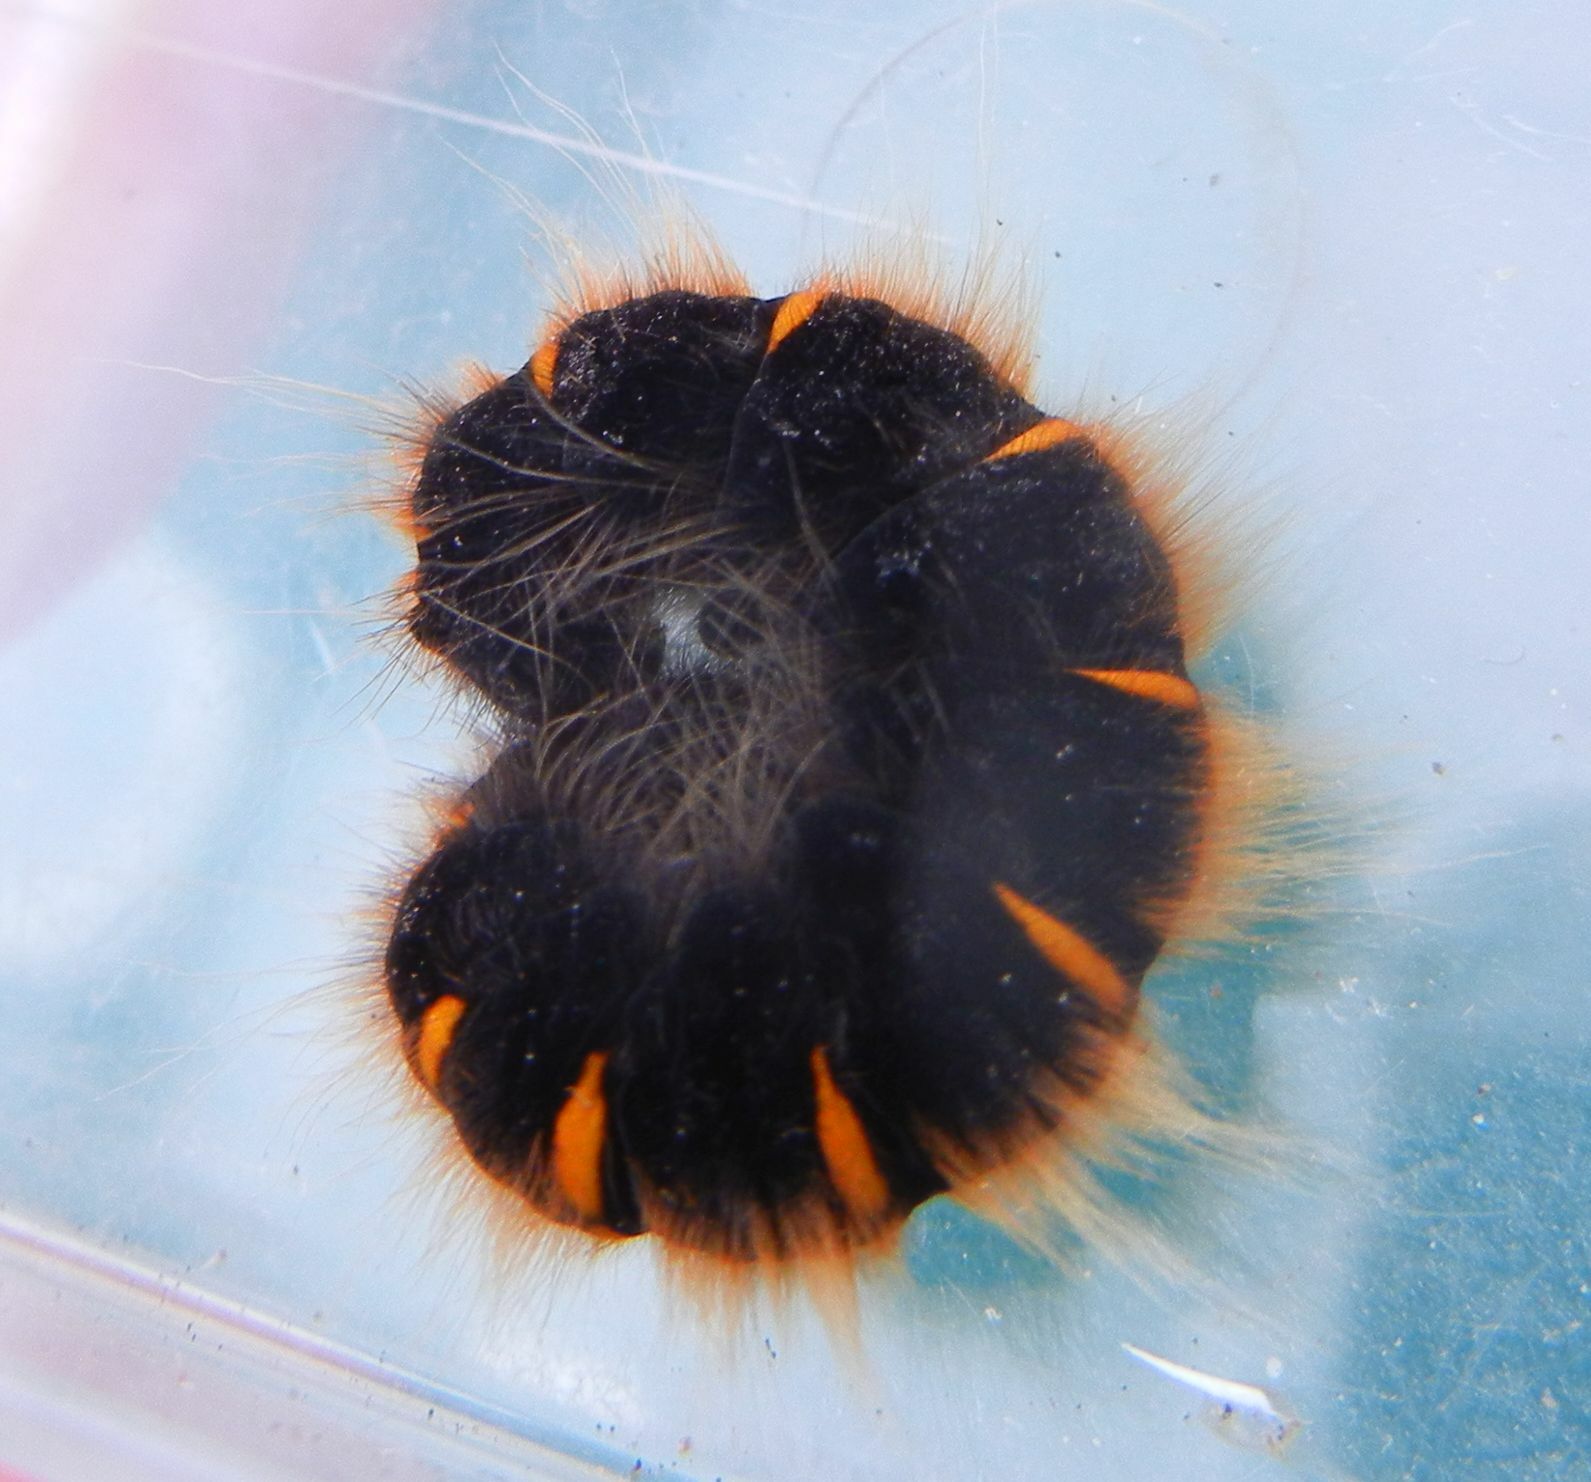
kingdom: Animalia
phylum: Arthropoda
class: Insecta
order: Lepidoptera
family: Lasiocampidae
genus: Macrothylacia
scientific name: Macrothylacia rubi
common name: Fox moth
